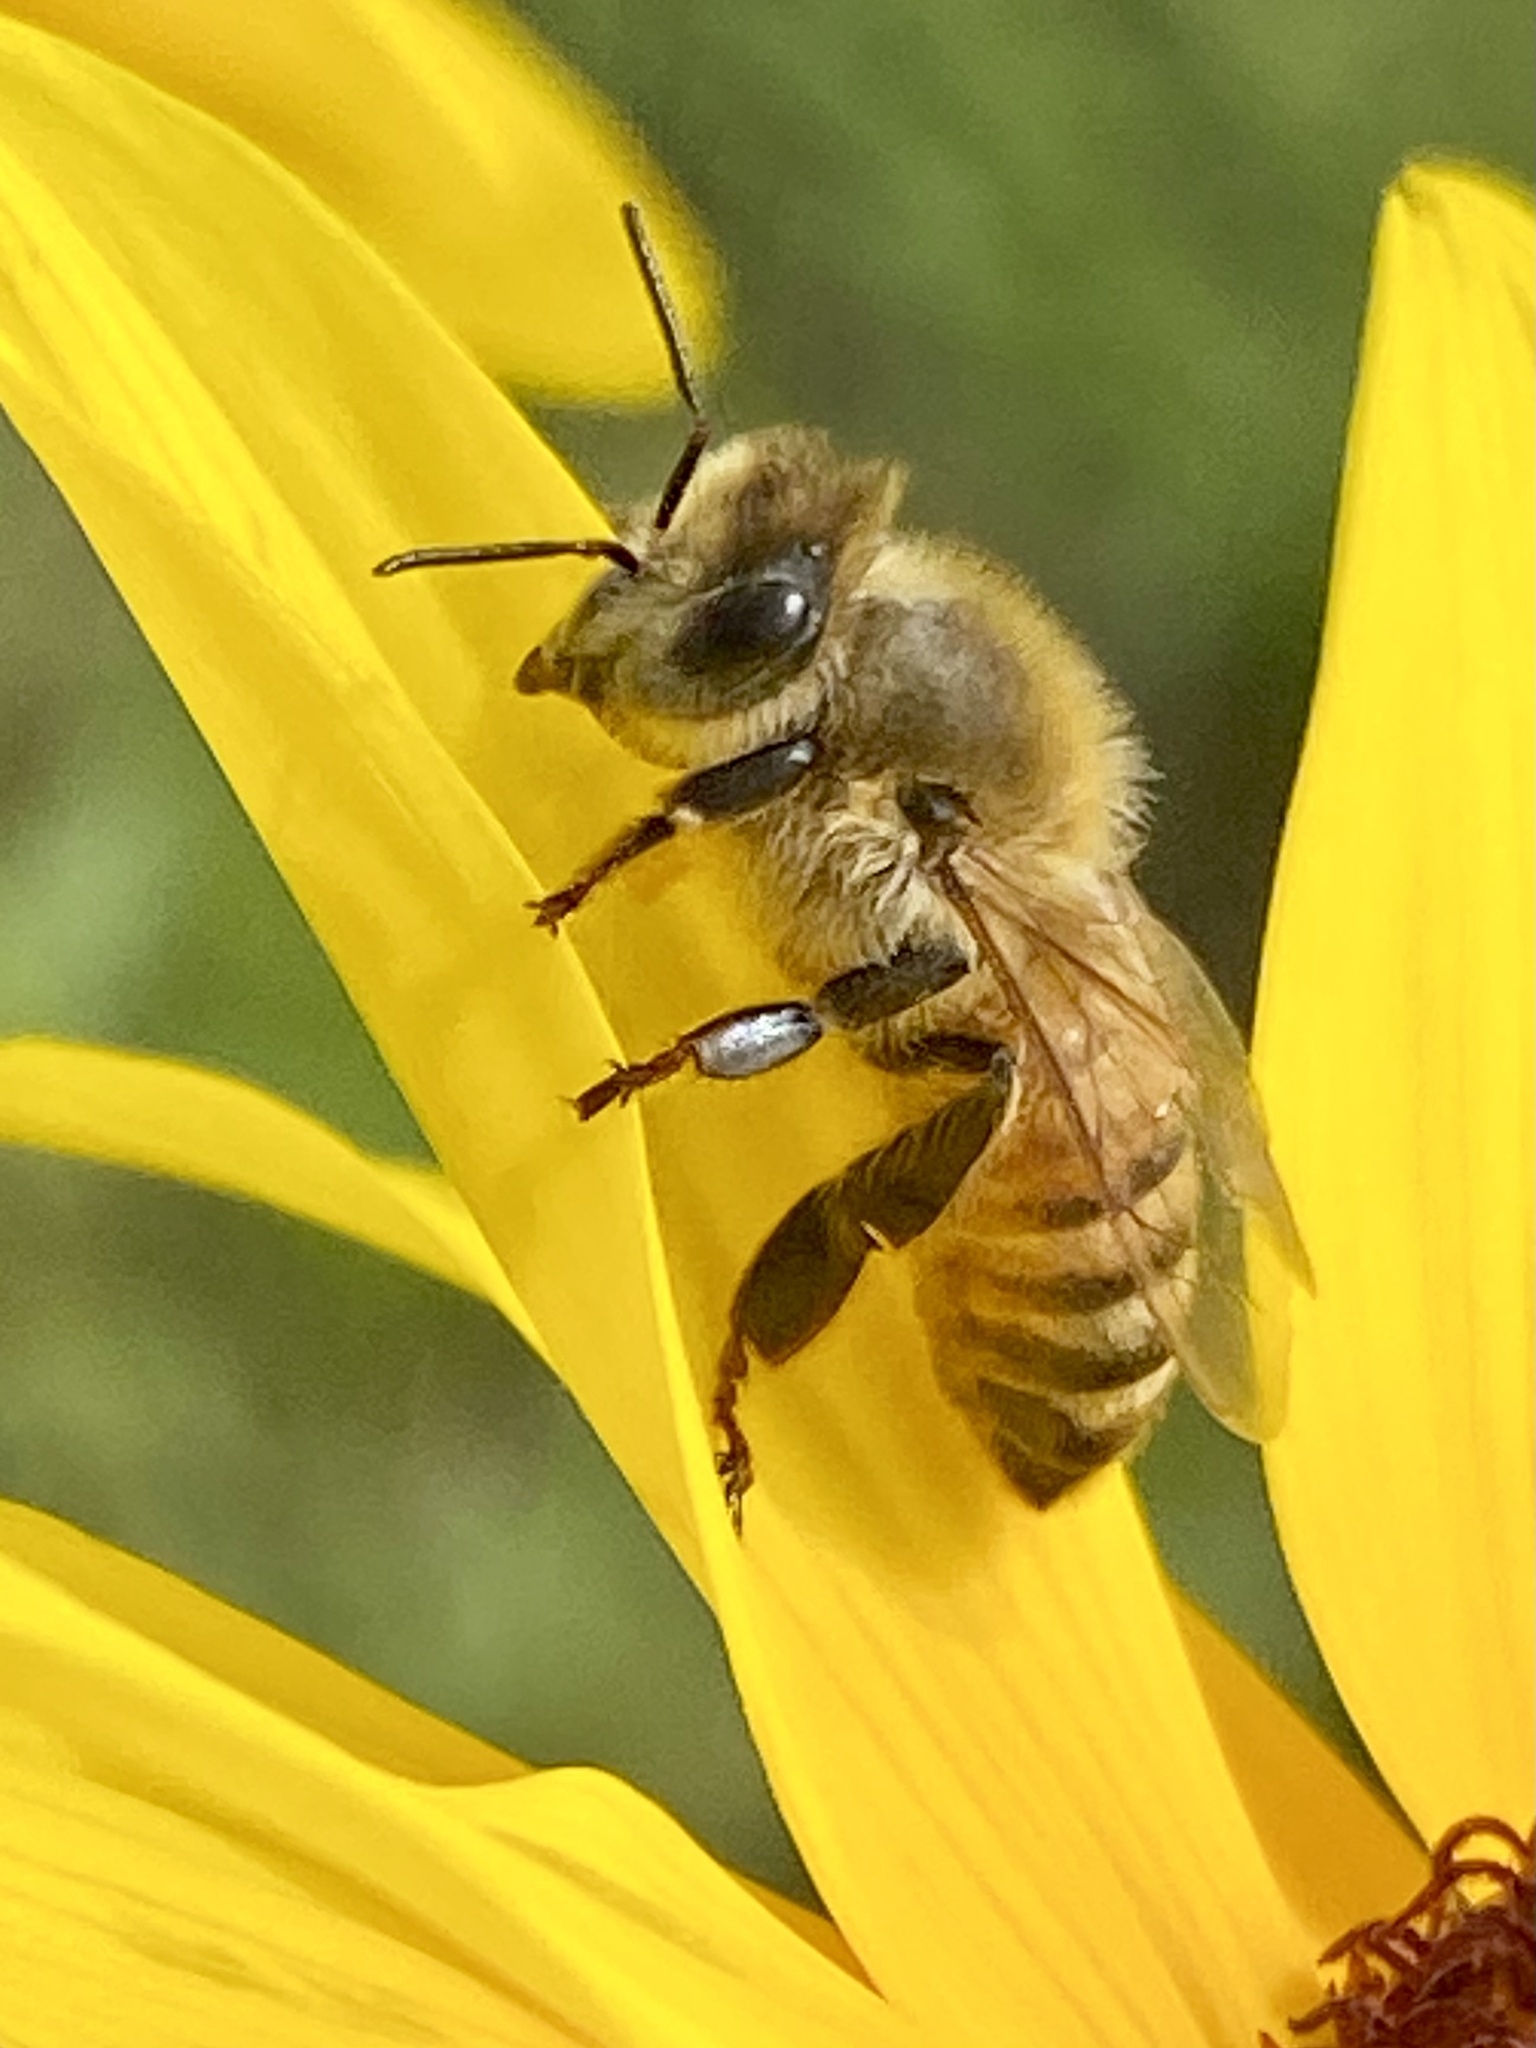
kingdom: Animalia
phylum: Arthropoda
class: Insecta
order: Hymenoptera
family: Apidae
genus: Apis
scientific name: Apis mellifera
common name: Honey bee
